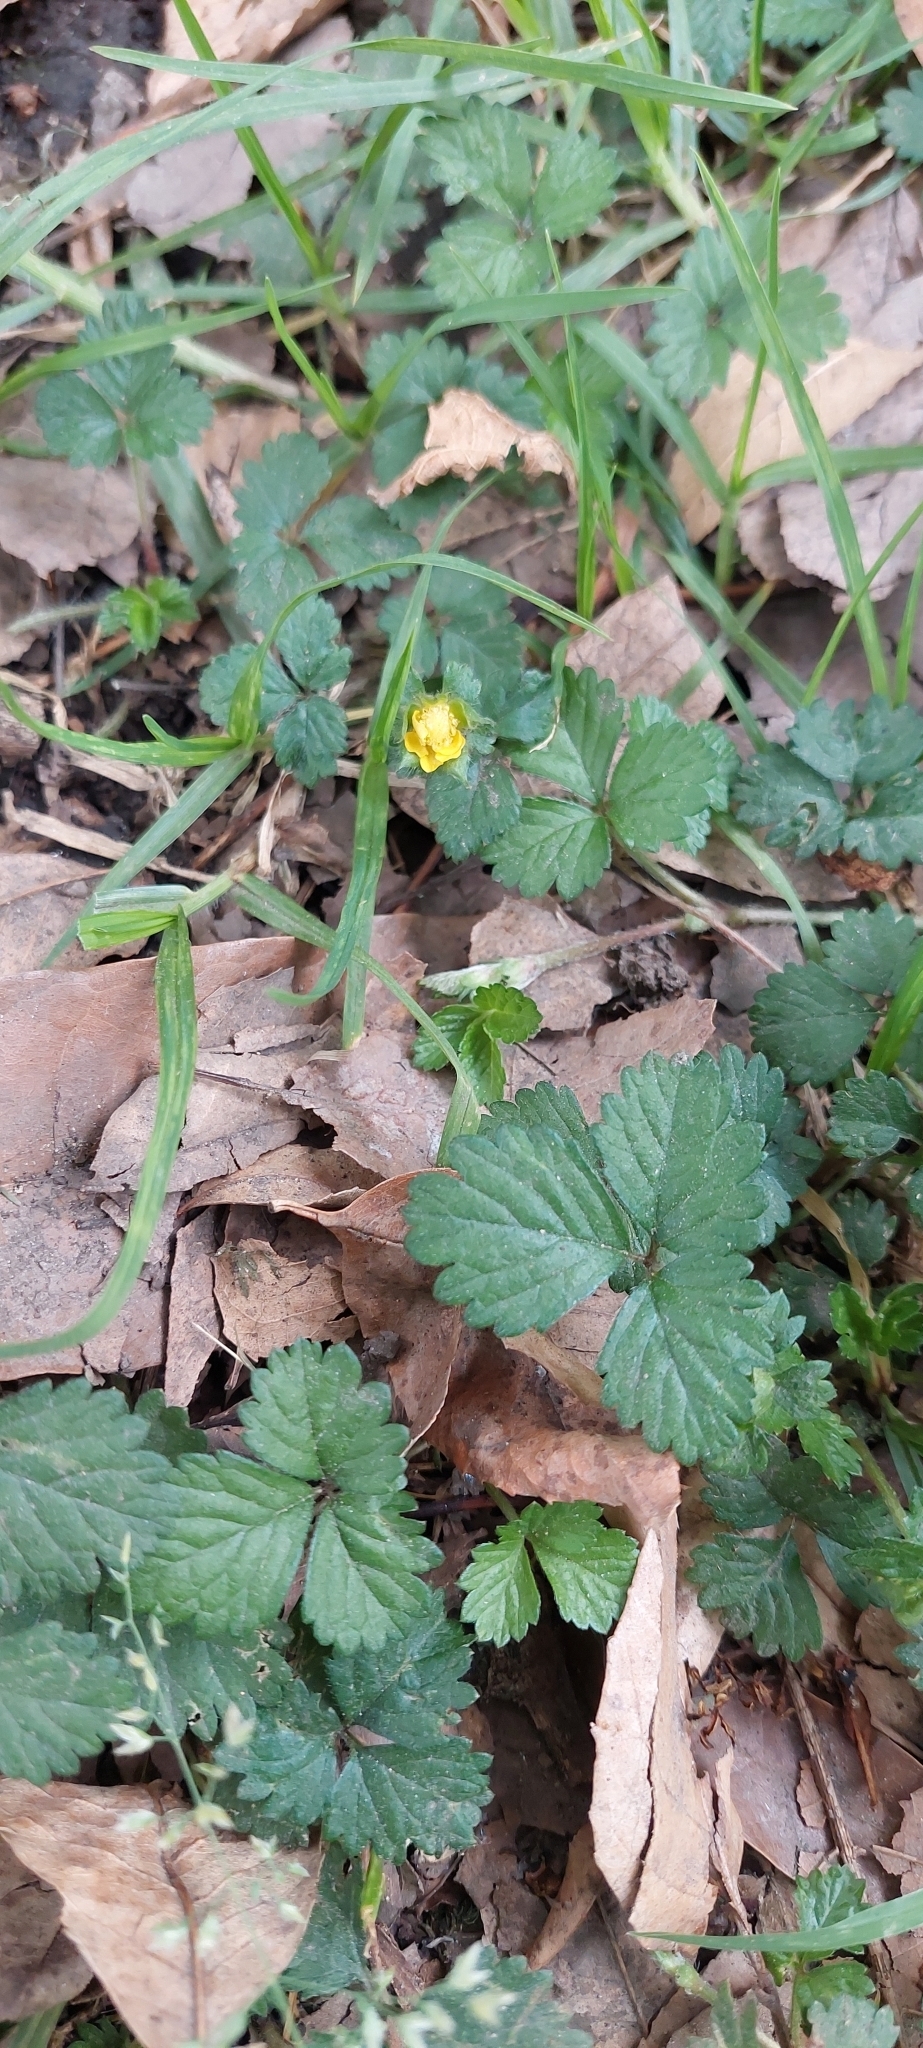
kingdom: Plantae
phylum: Tracheophyta
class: Magnoliopsida
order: Rosales
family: Rosaceae
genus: Potentilla
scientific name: Potentilla indica
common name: Yellow-flowered strawberry
